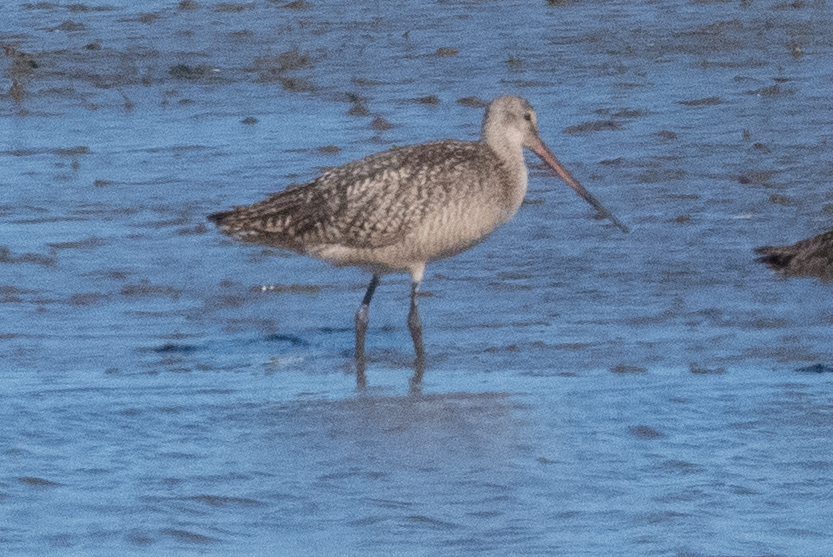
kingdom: Animalia
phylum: Chordata
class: Aves
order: Charadriiformes
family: Scolopacidae
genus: Limosa
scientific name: Limosa fedoa
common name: Marbled godwit
